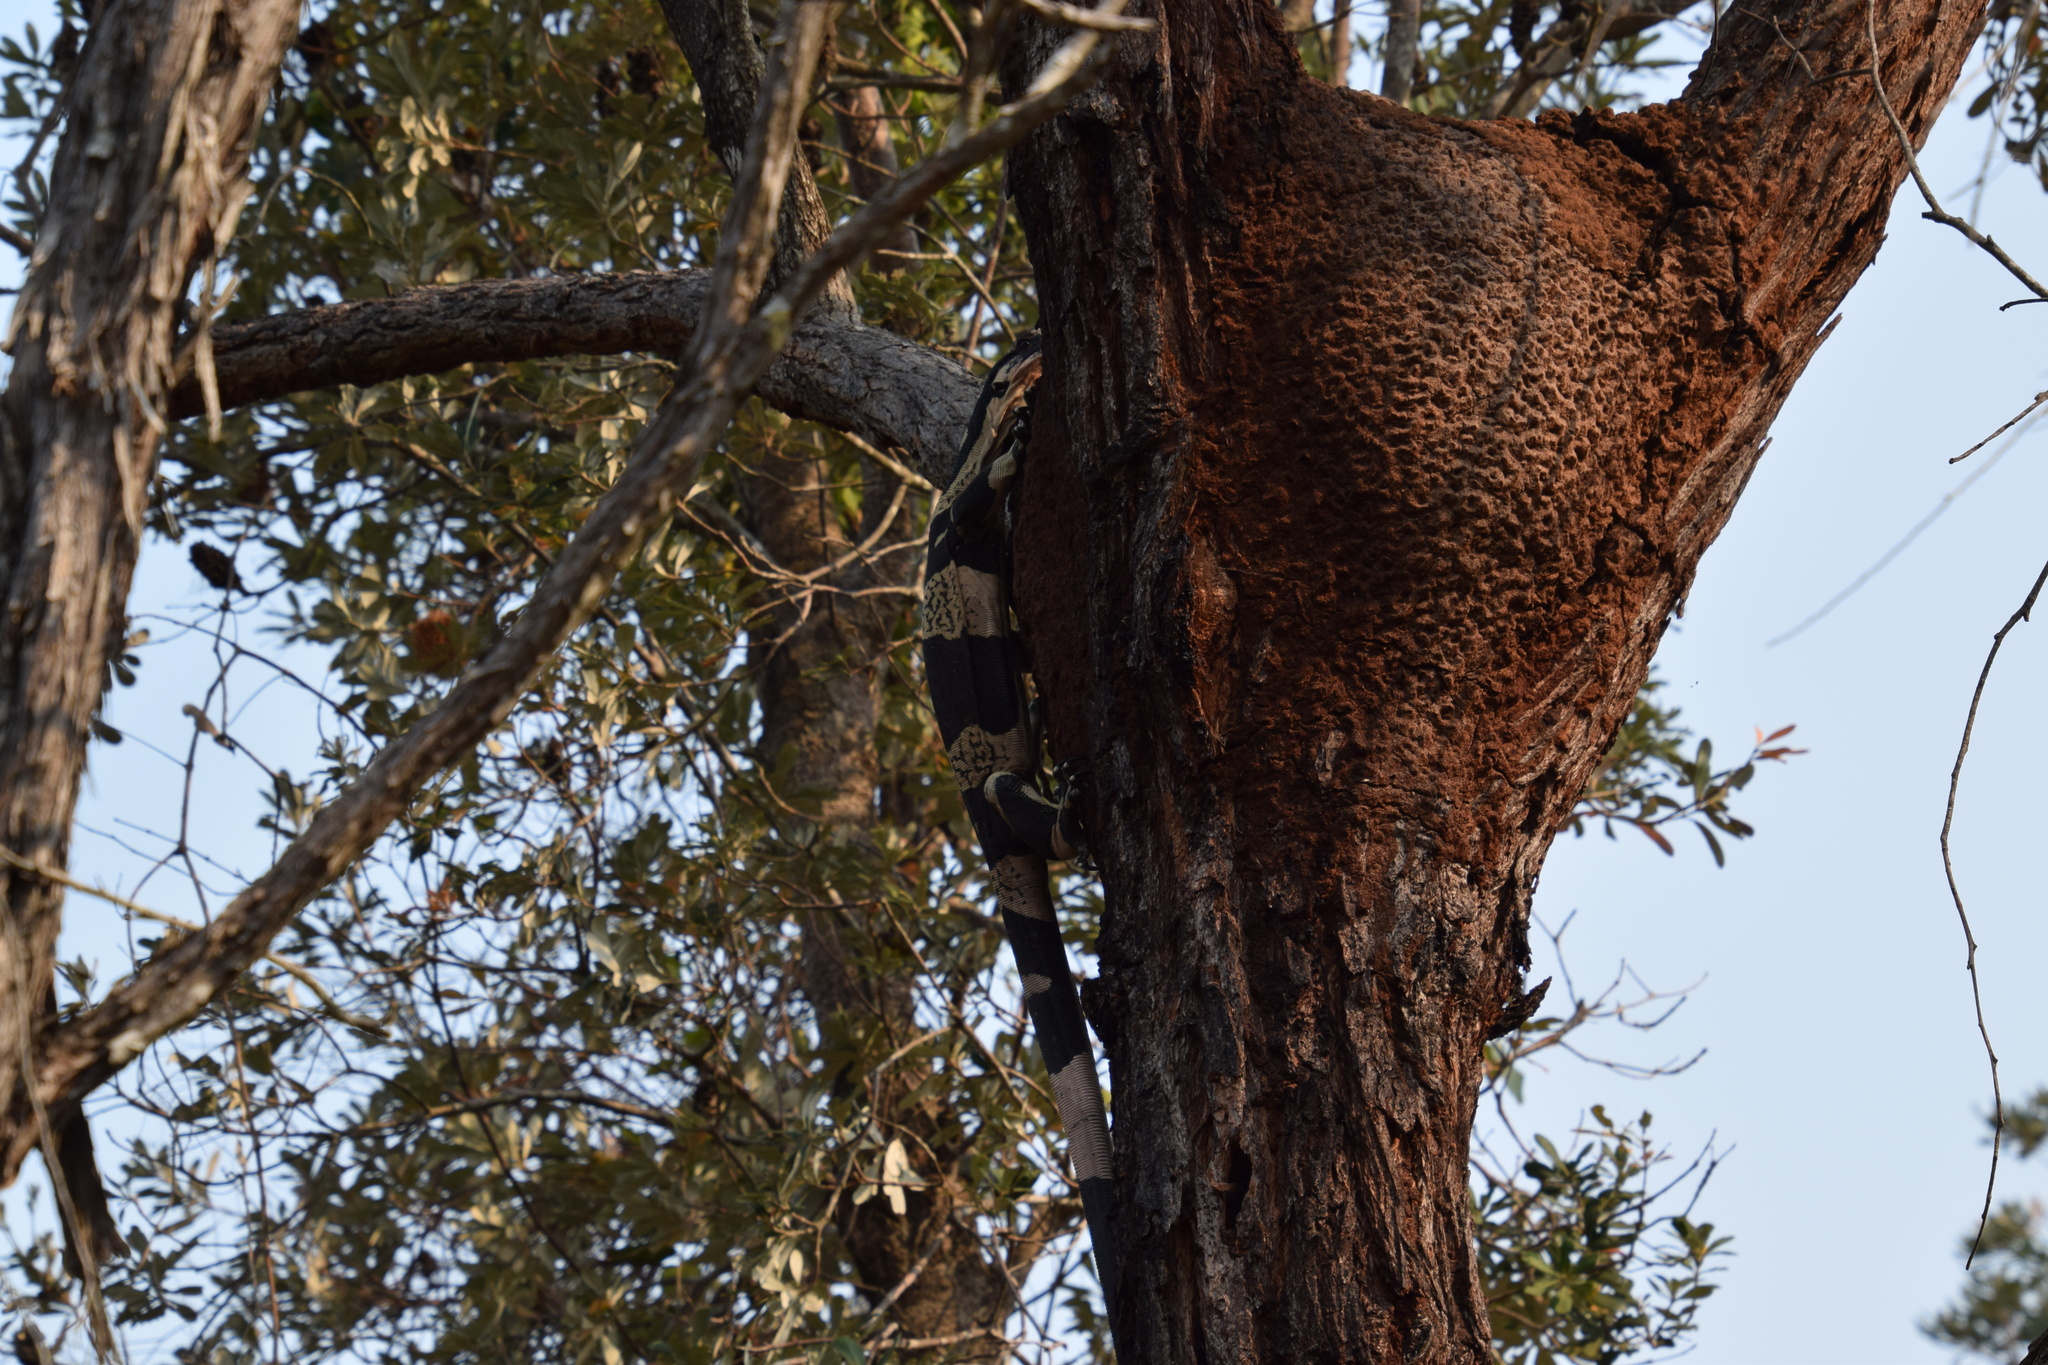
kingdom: Animalia
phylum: Chordata
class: Squamata
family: Varanidae
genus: Varanus
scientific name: Varanus varius
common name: Lace monitor
